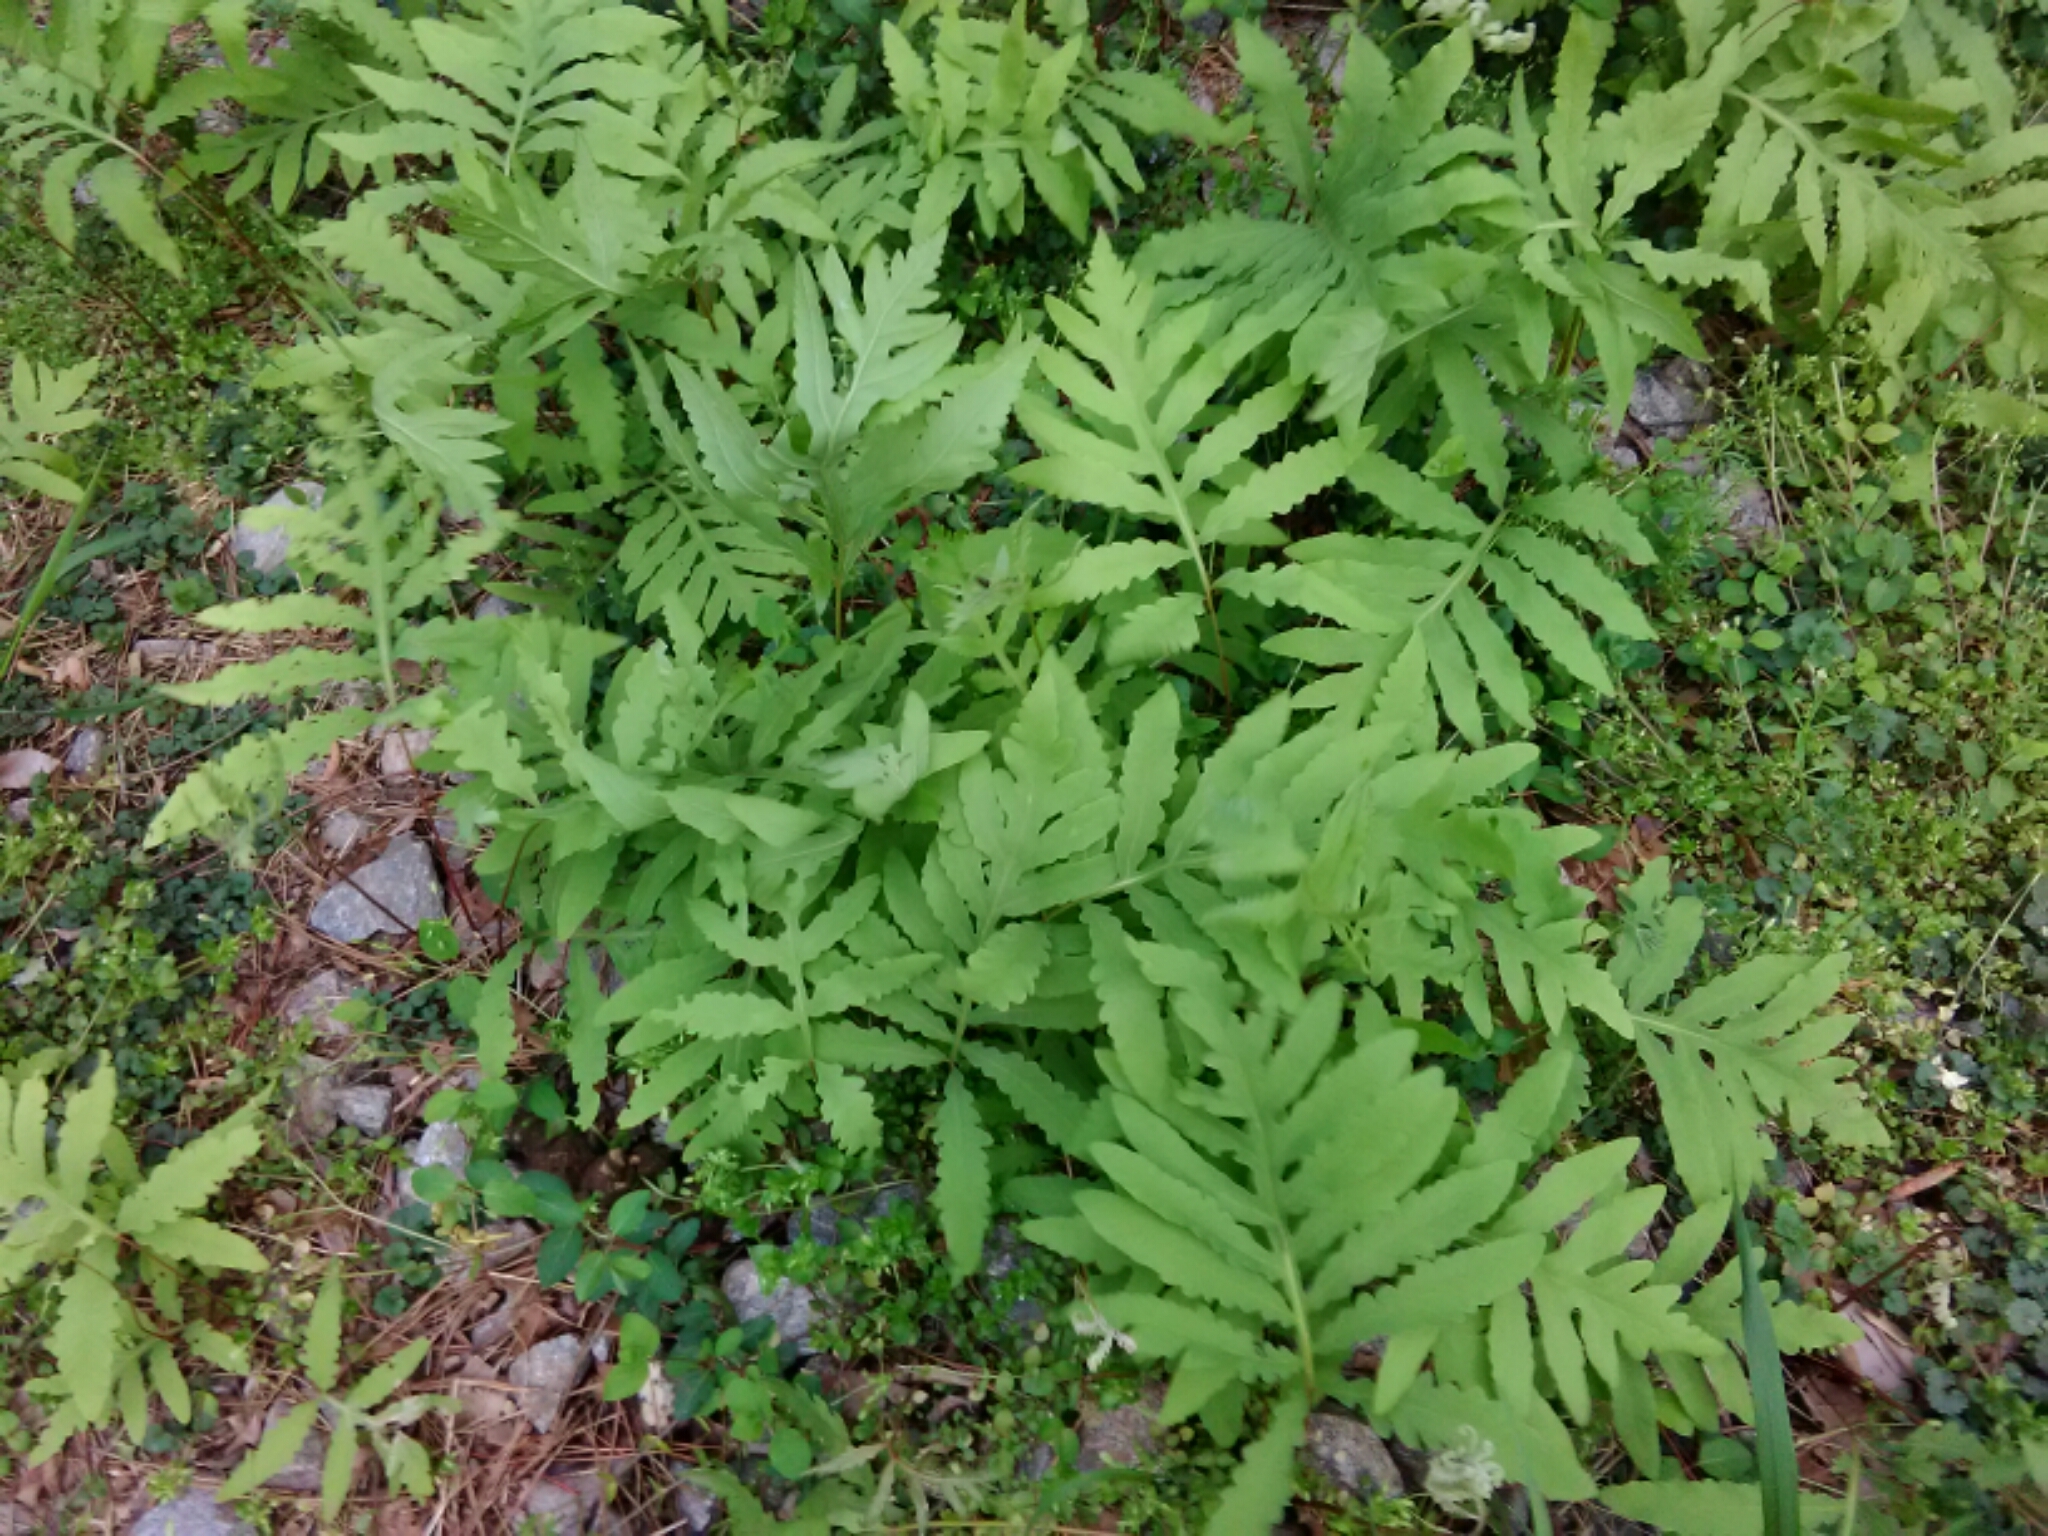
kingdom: Plantae
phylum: Tracheophyta
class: Polypodiopsida
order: Polypodiales
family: Onocleaceae
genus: Onoclea
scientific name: Onoclea sensibilis
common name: Sensitive fern
